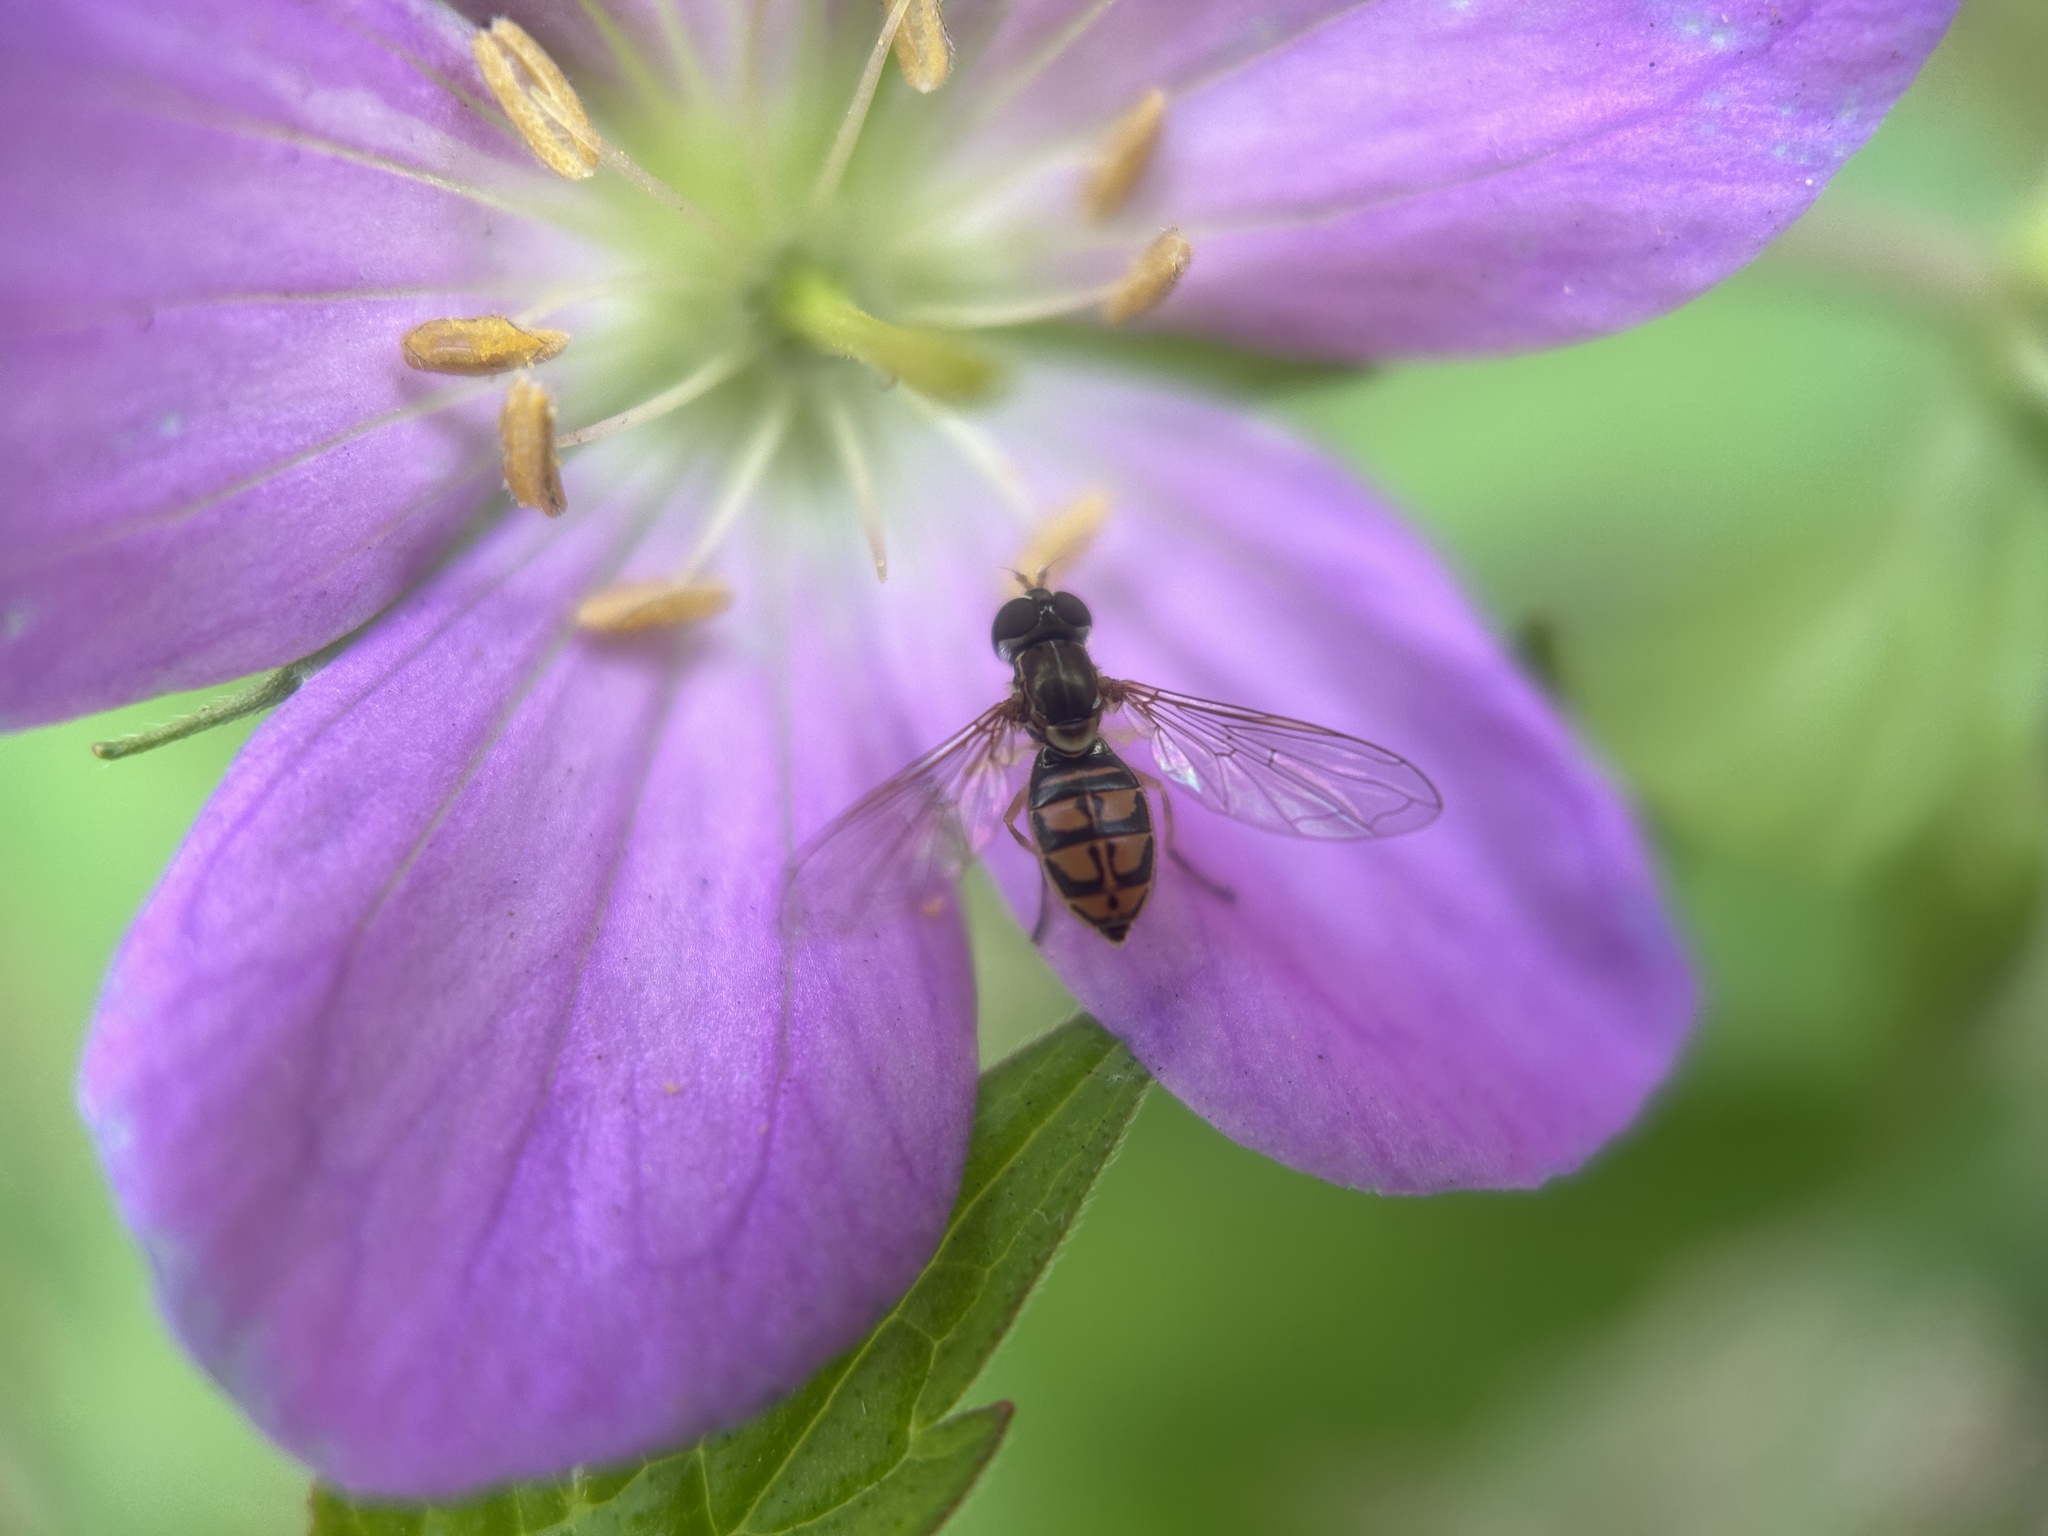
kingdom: Animalia
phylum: Arthropoda
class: Insecta
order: Diptera
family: Syrphidae
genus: Toxomerus
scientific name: Toxomerus marginatus
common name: Syrphid fly
